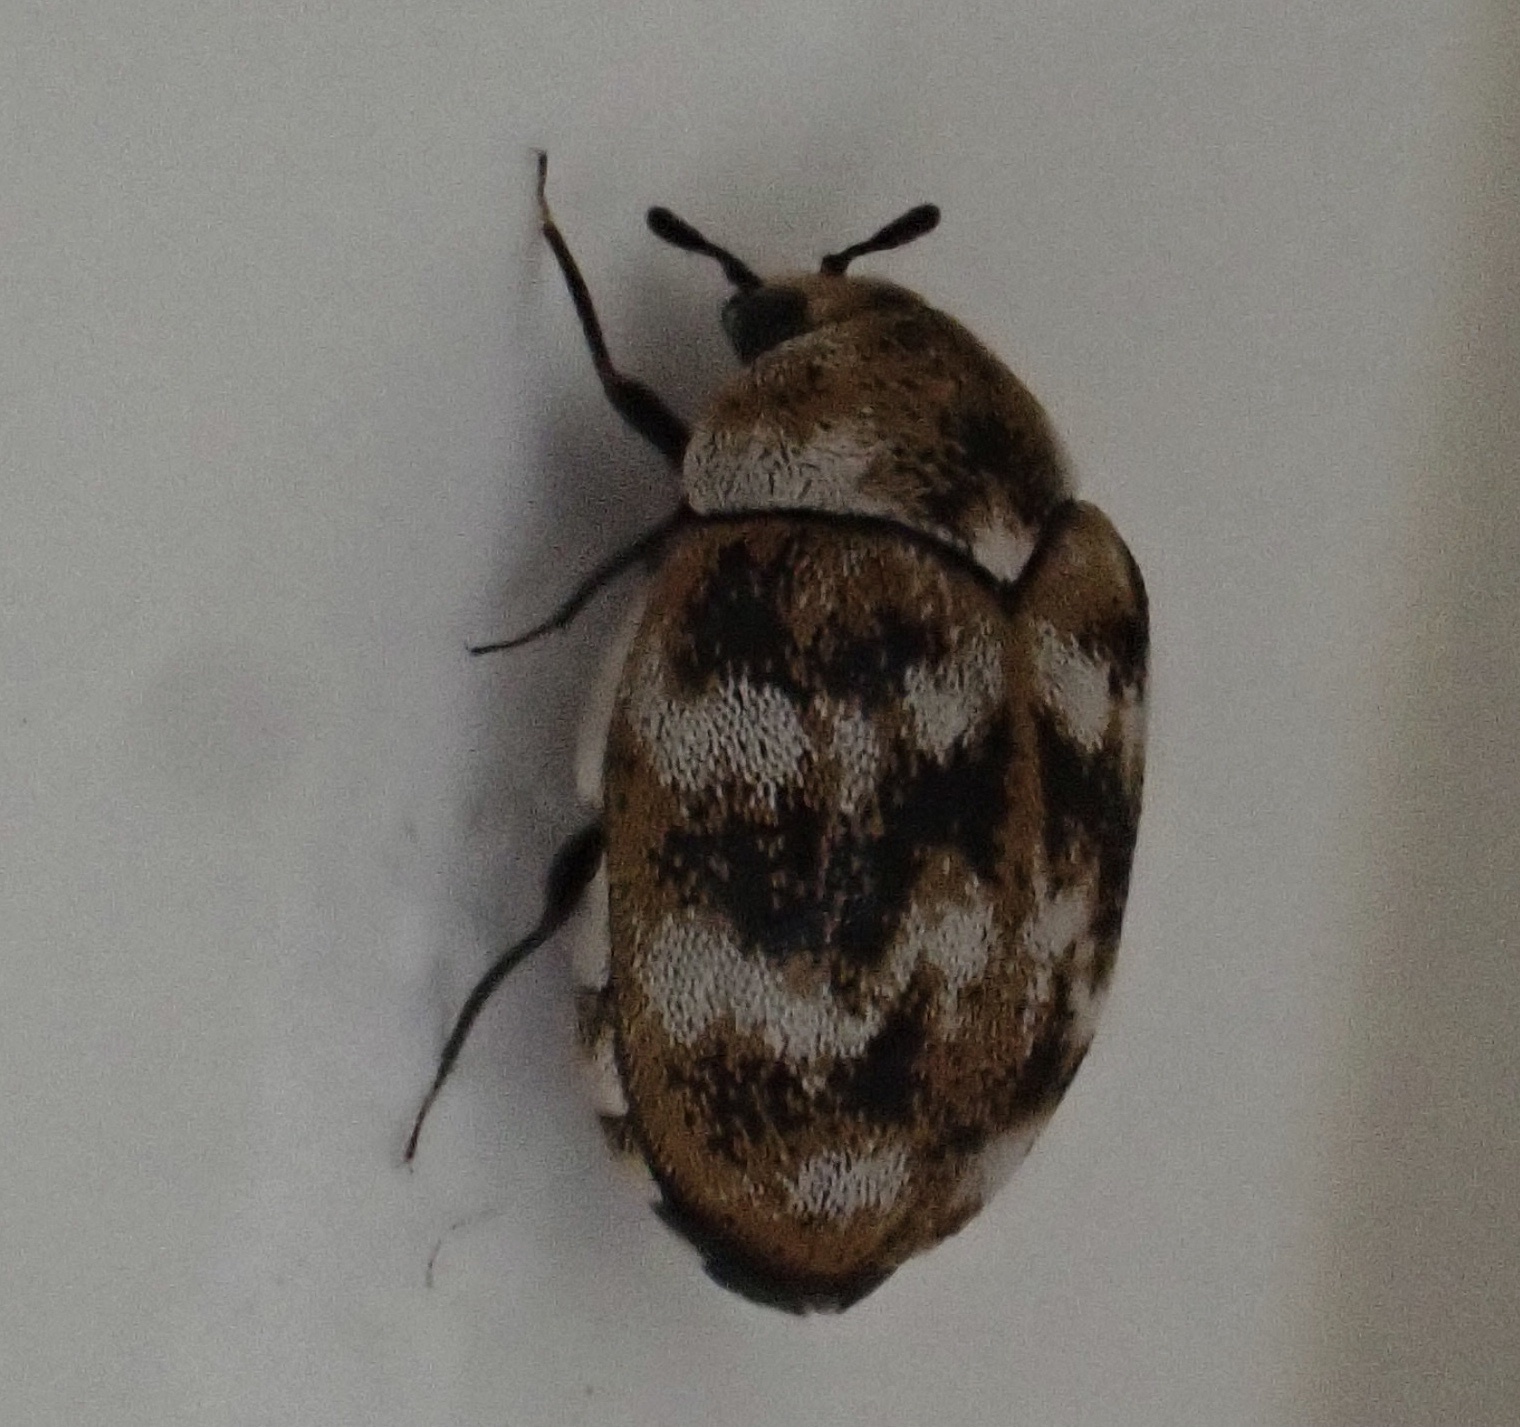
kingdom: Animalia
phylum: Arthropoda
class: Insecta
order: Coleoptera
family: Dermestidae
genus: Anthrenus
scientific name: Anthrenus verbasci
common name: Varied carpet beetle
